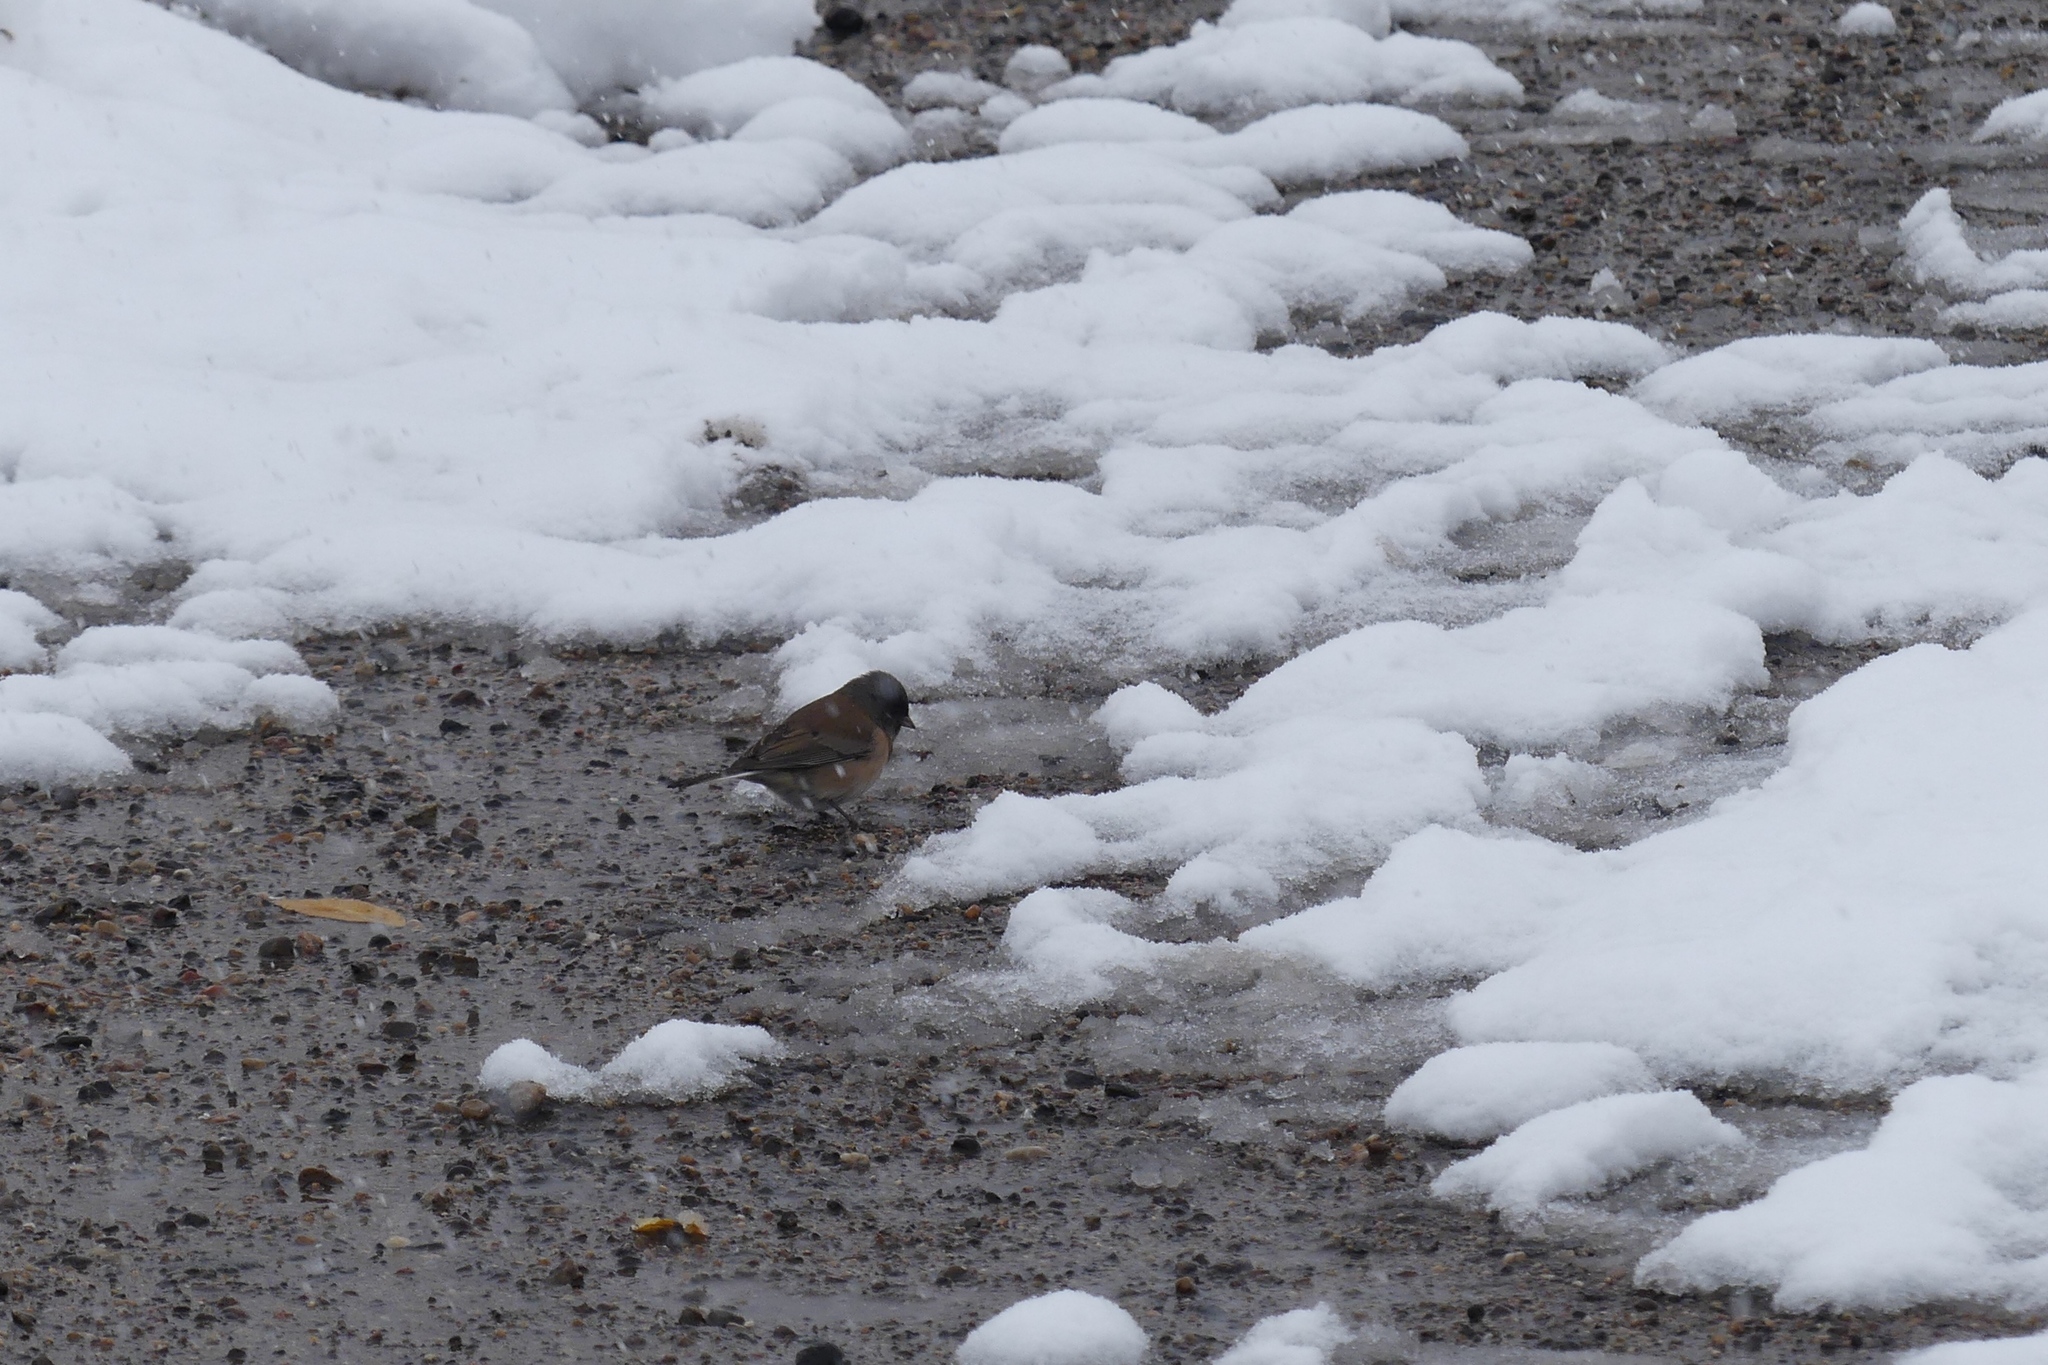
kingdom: Animalia
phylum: Chordata
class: Aves
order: Passeriformes
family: Passerellidae
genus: Junco
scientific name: Junco hyemalis
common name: Dark-eyed junco
